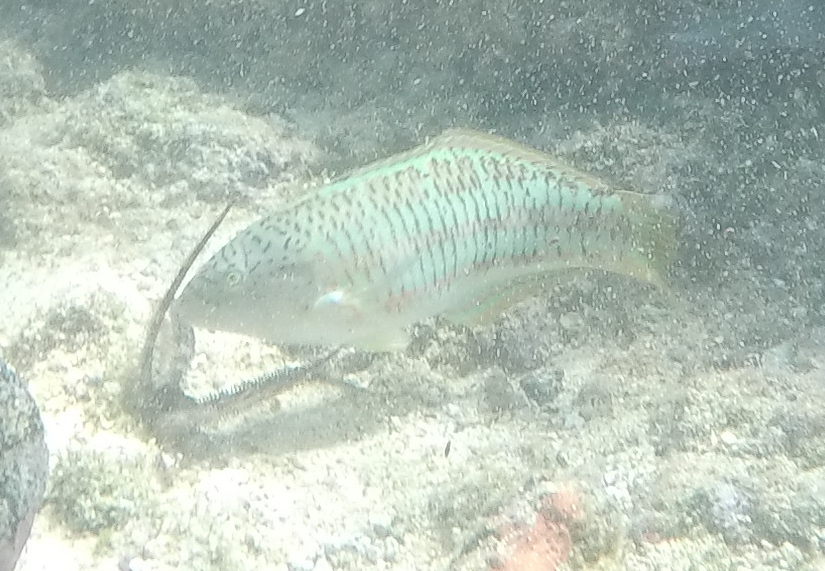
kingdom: Animalia
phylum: Chordata
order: Perciformes
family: Labridae
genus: Thalassoma
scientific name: Thalassoma trilobatum
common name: Christmas wrasse
